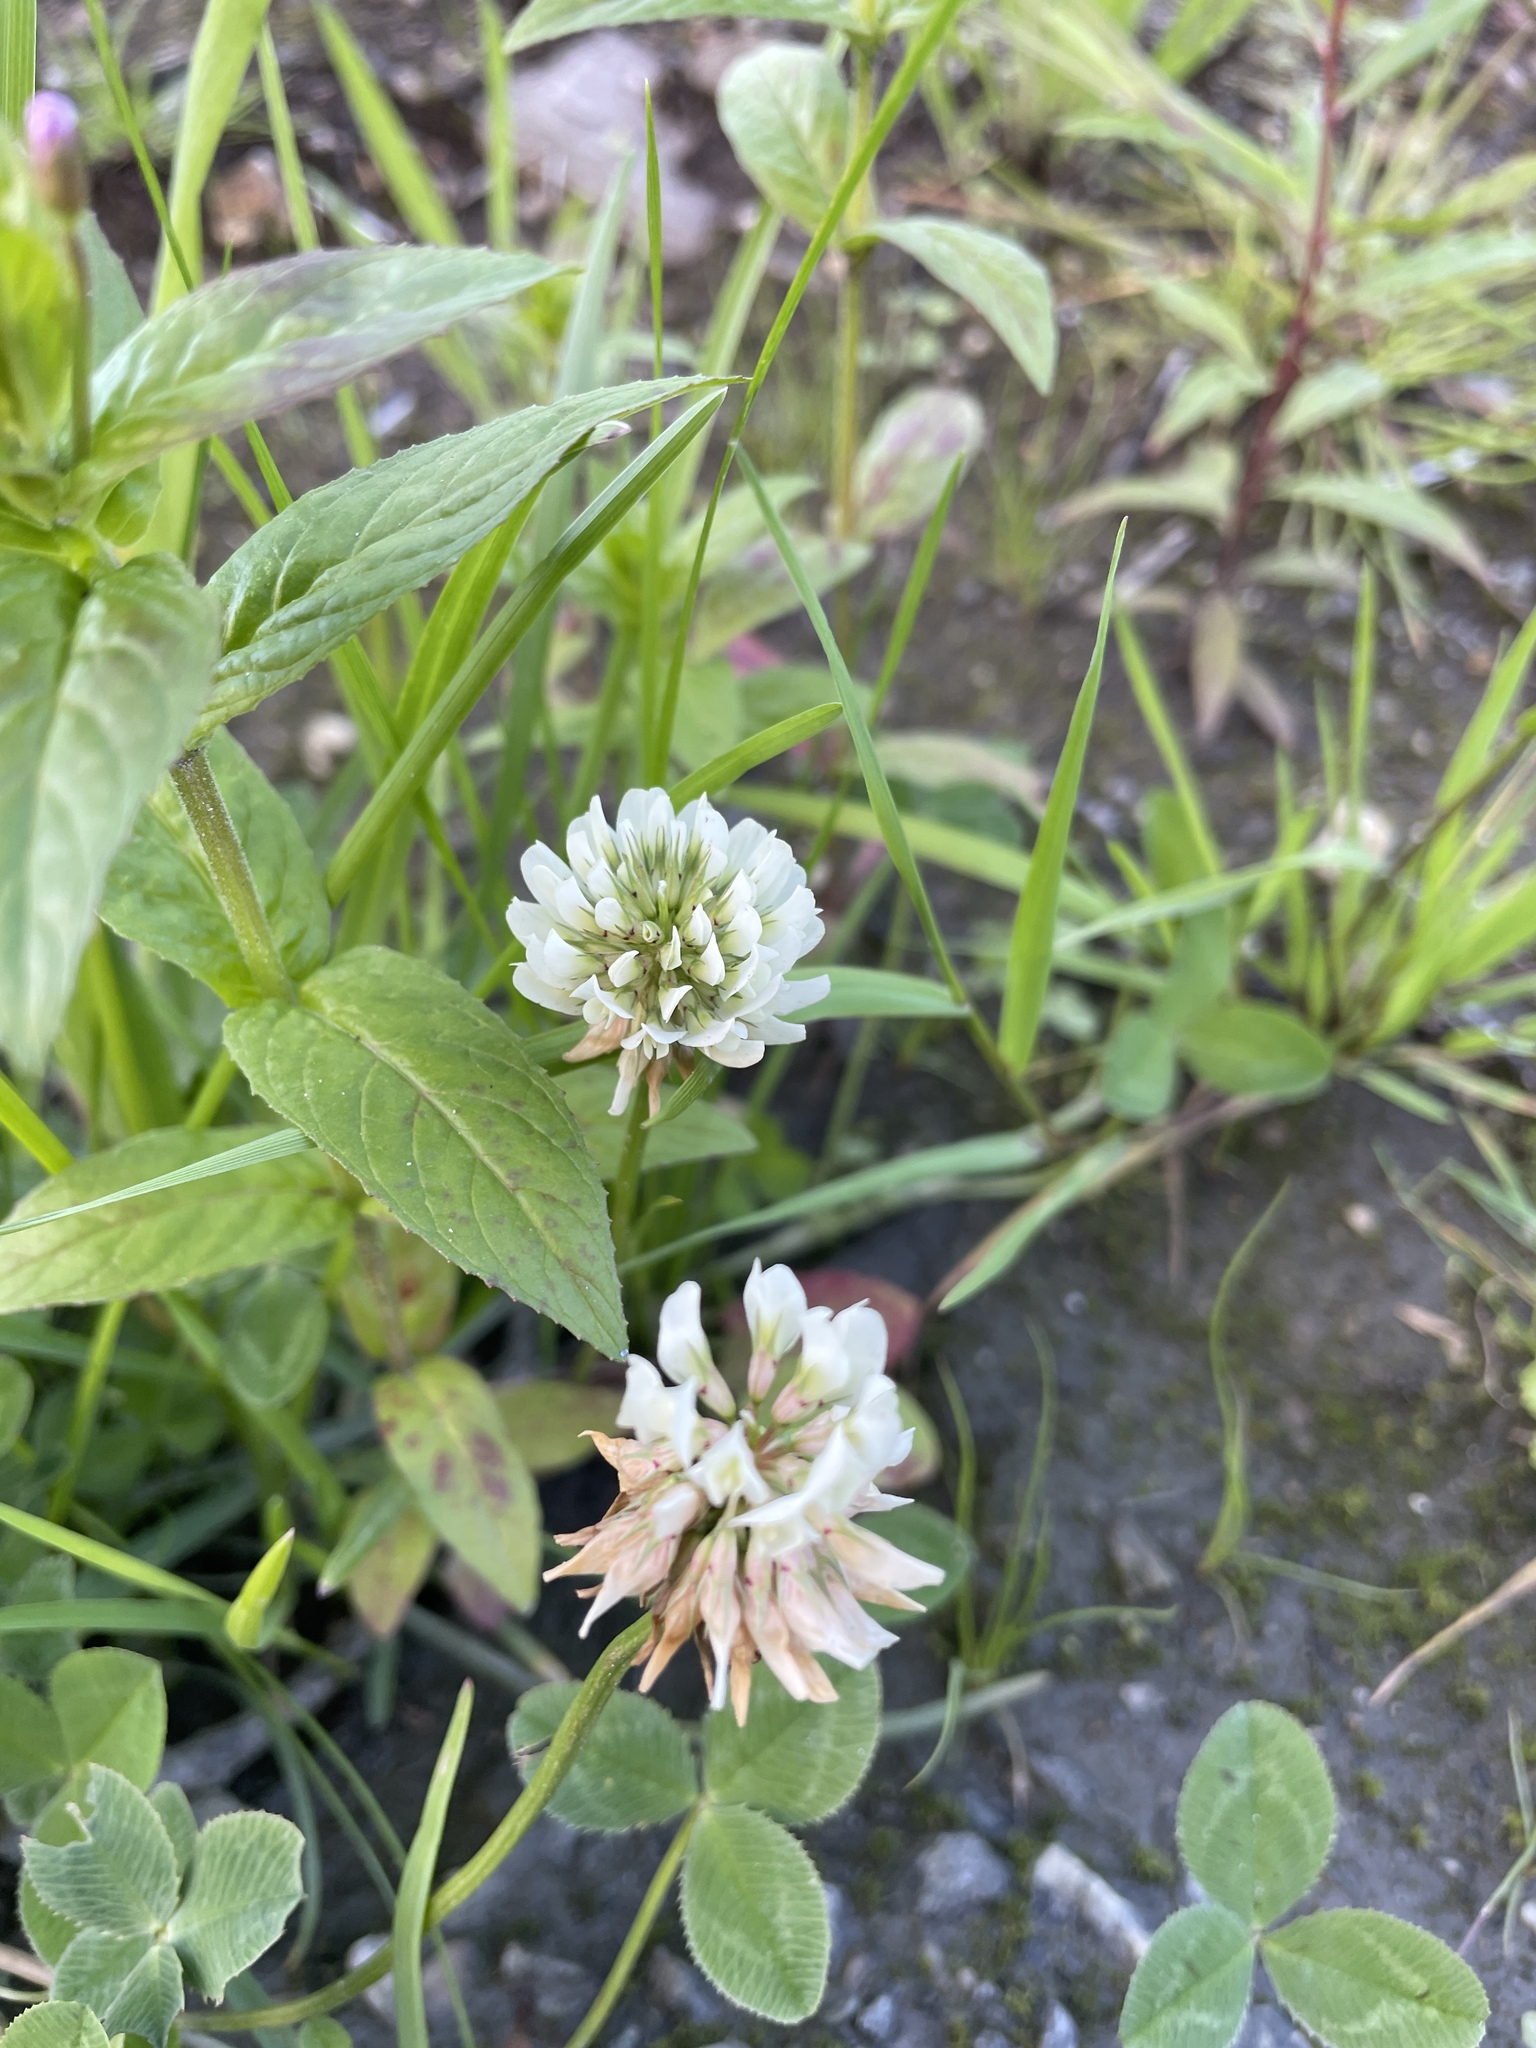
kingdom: Plantae
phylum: Tracheophyta
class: Magnoliopsida
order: Fabales
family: Fabaceae
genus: Trifolium
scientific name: Trifolium repens
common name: White clover
